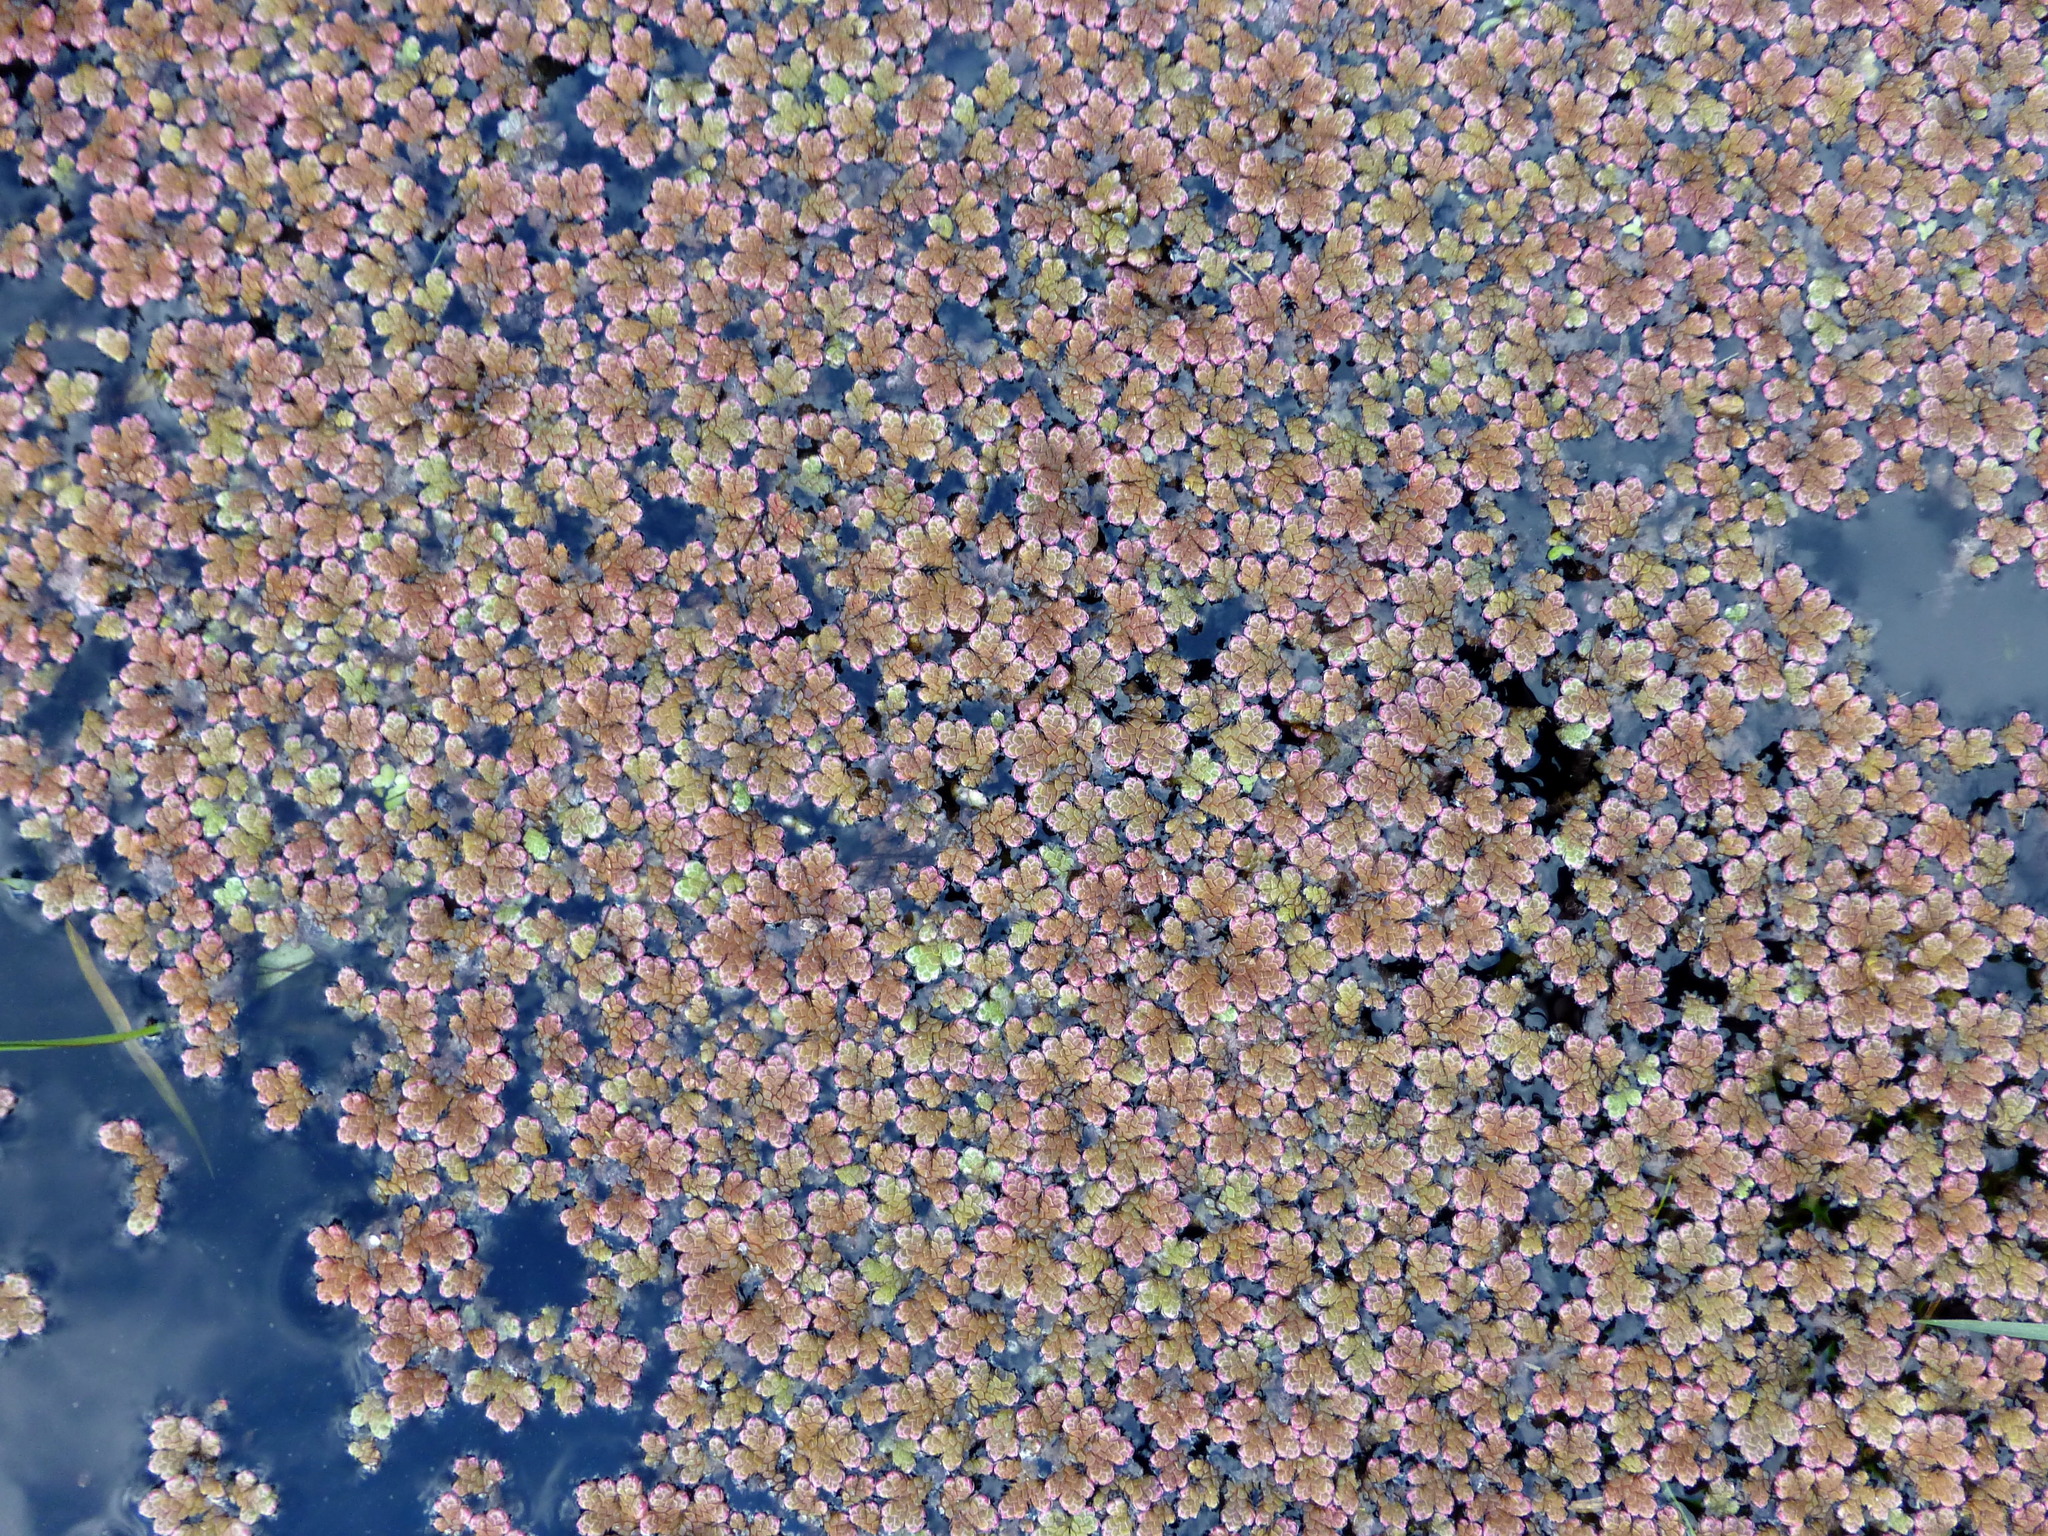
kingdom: Plantae
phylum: Tracheophyta
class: Polypodiopsida
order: Salviniales
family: Salviniaceae
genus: Azolla
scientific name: Azolla rubra
